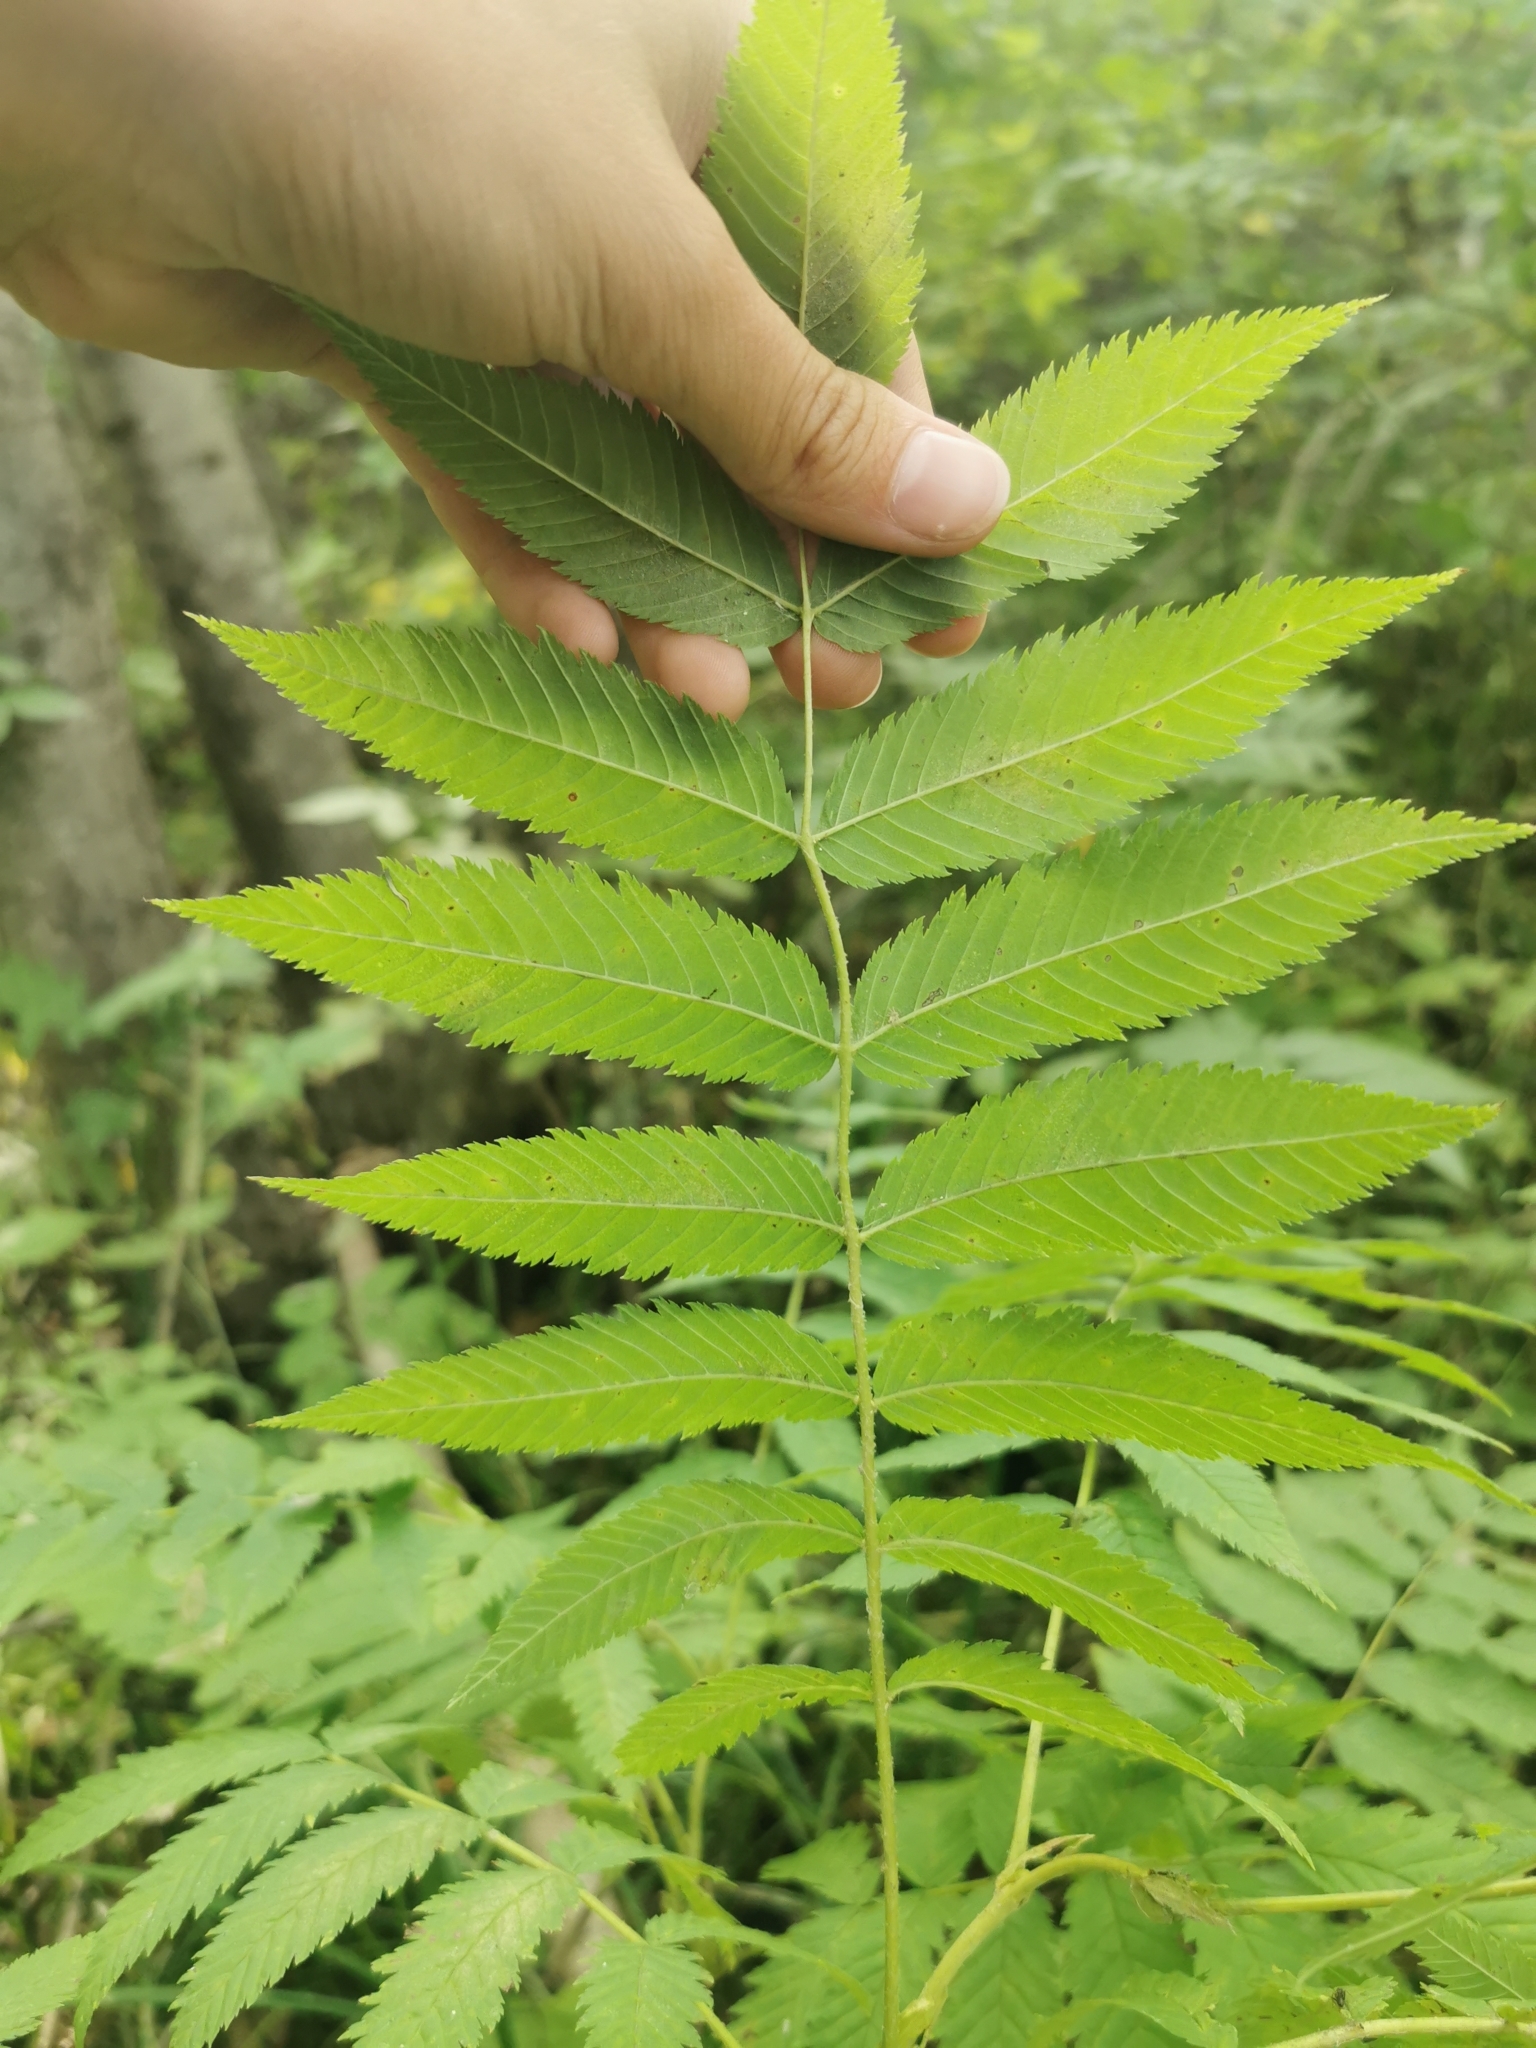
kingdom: Plantae
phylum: Tracheophyta
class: Magnoliopsida
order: Rosales
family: Rosaceae
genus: Sorbaria
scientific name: Sorbaria sorbifolia
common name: False spiraea
